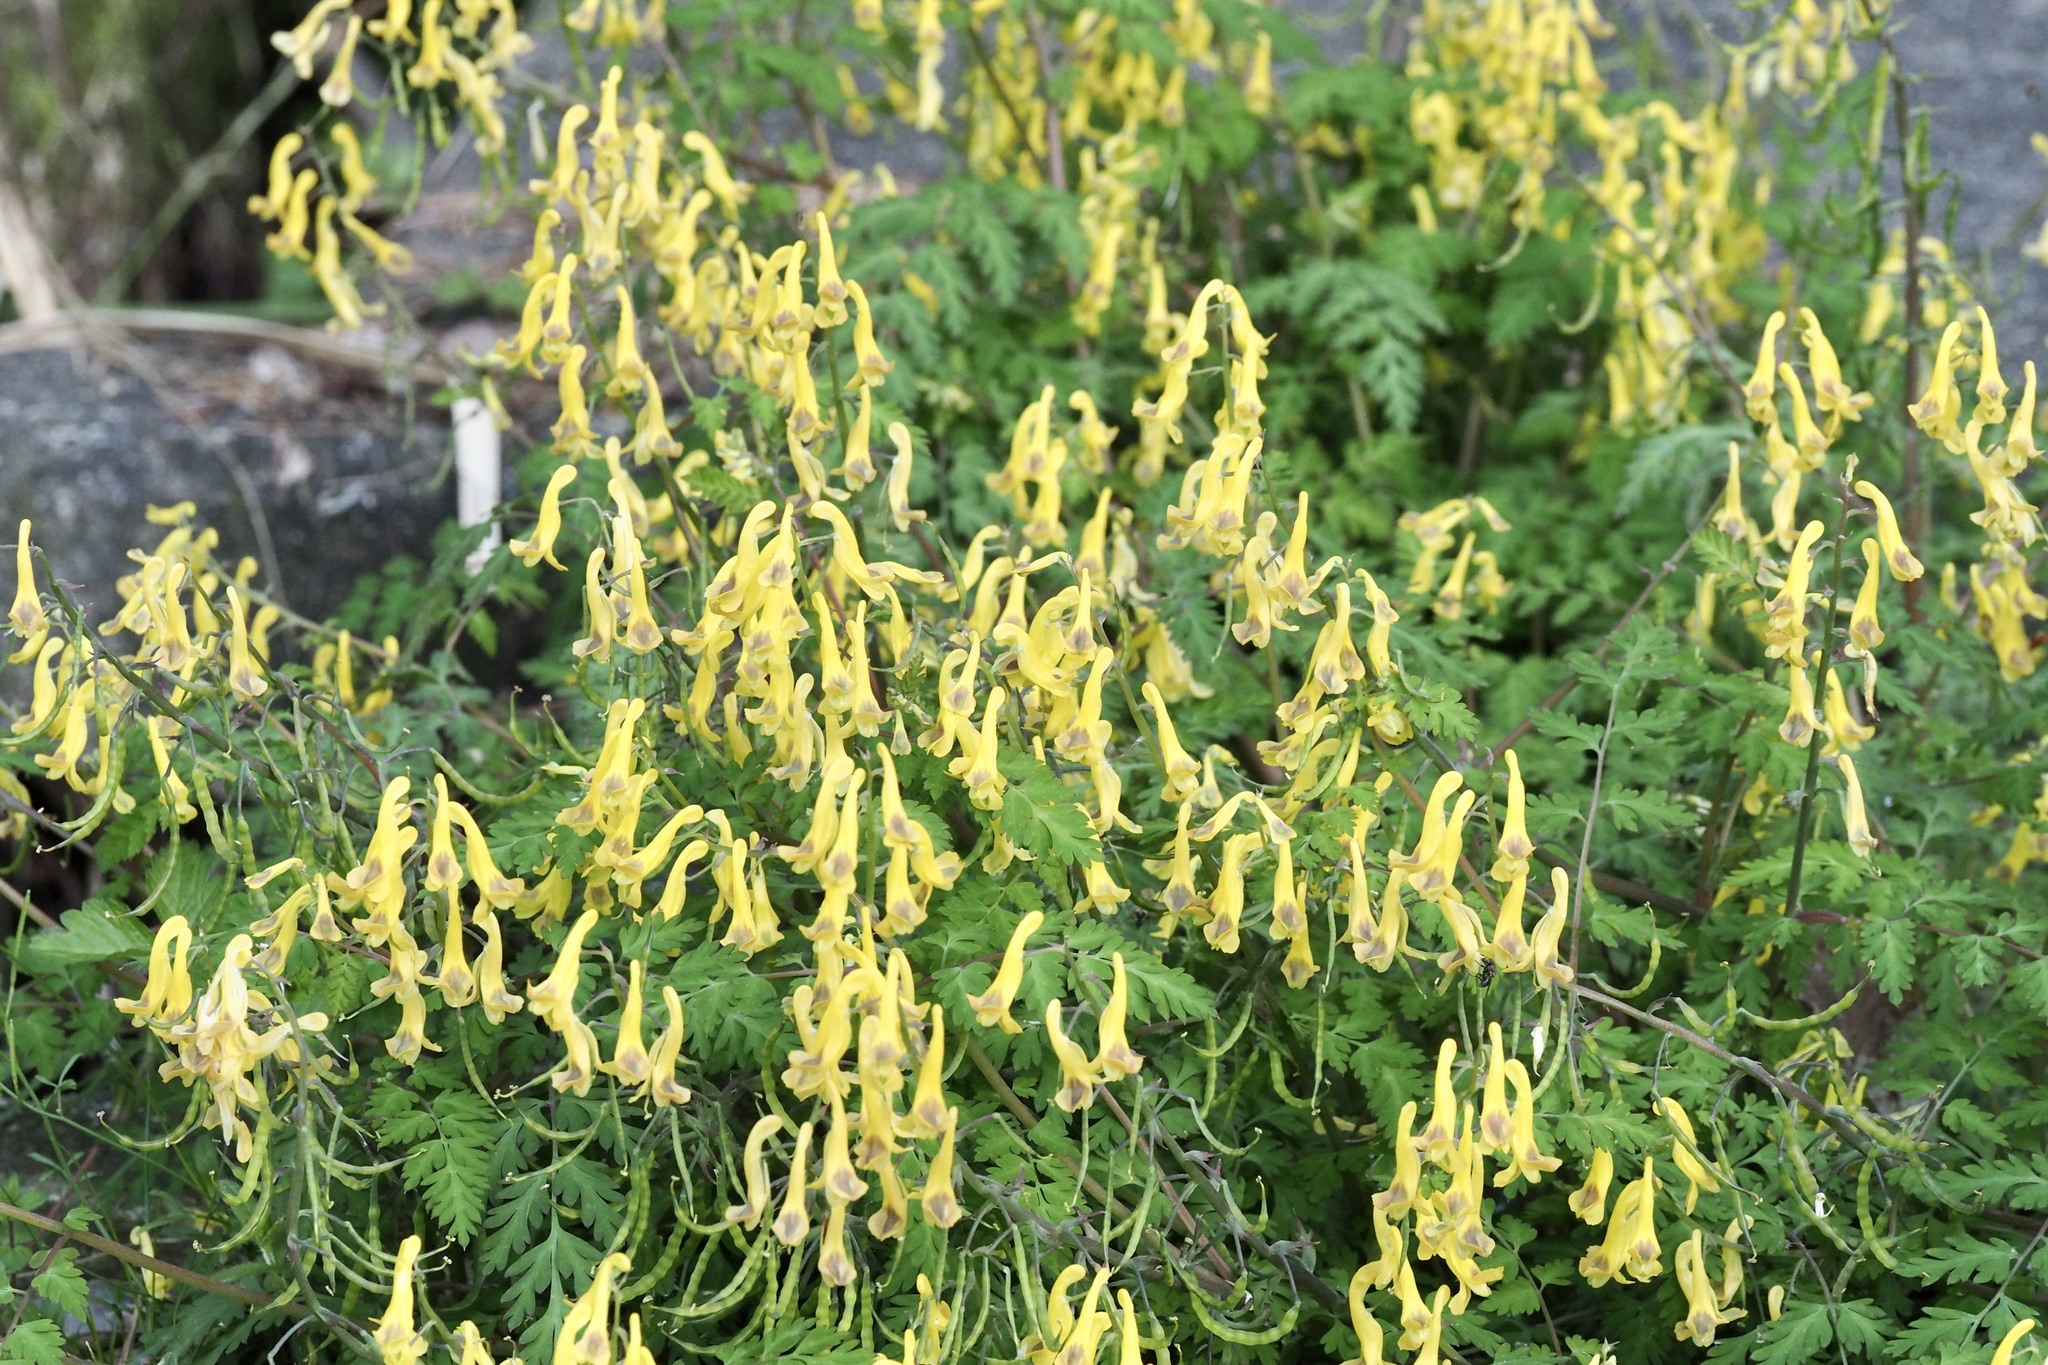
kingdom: Plantae
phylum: Tracheophyta
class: Magnoliopsida
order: Ranunculales
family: Papaveraceae
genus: Corydalis
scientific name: Corydalis pallida
